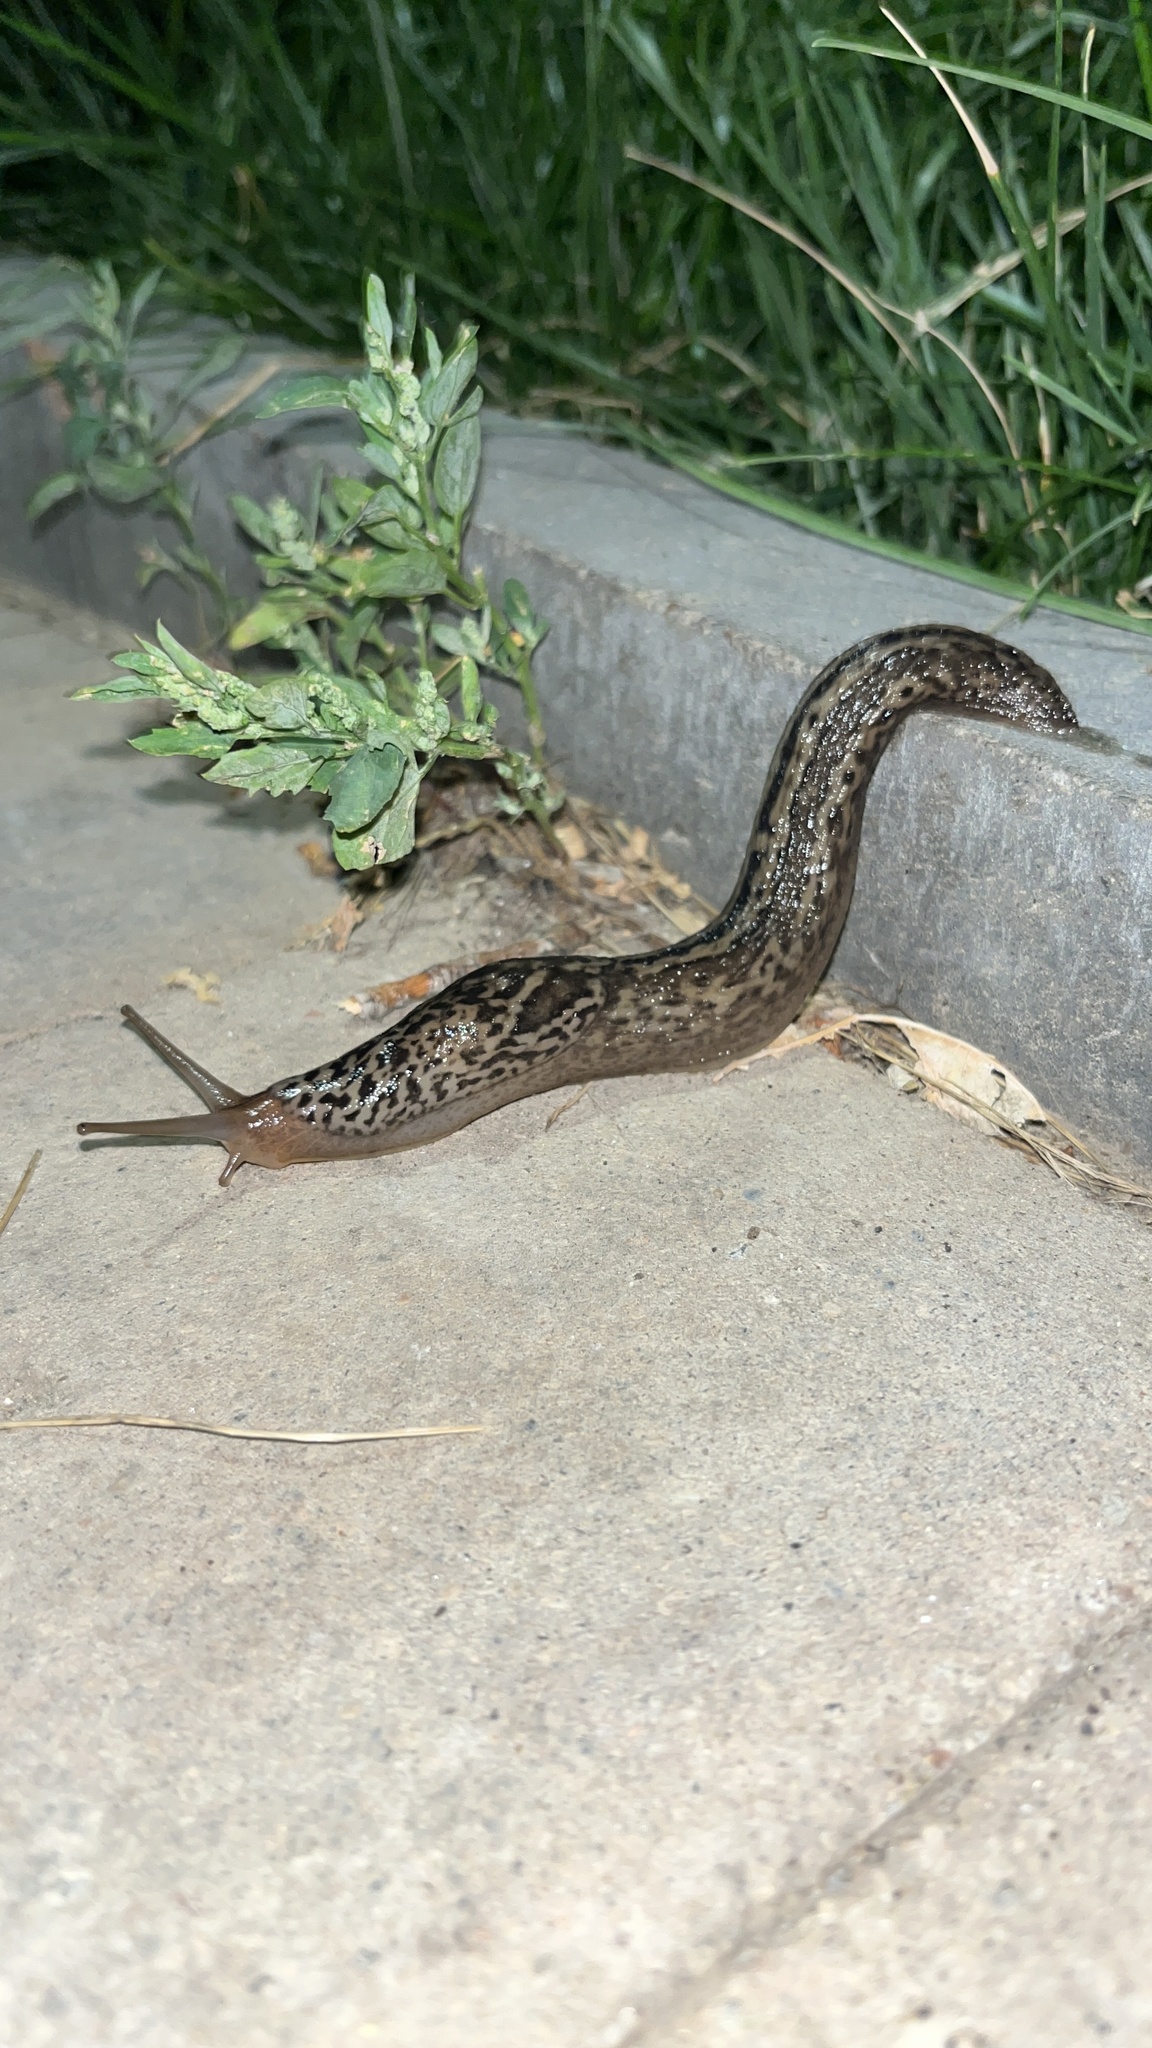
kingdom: Animalia
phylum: Mollusca
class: Gastropoda
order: Stylommatophora
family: Limacidae
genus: Limax
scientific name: Limax maximus
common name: Great grey slug
